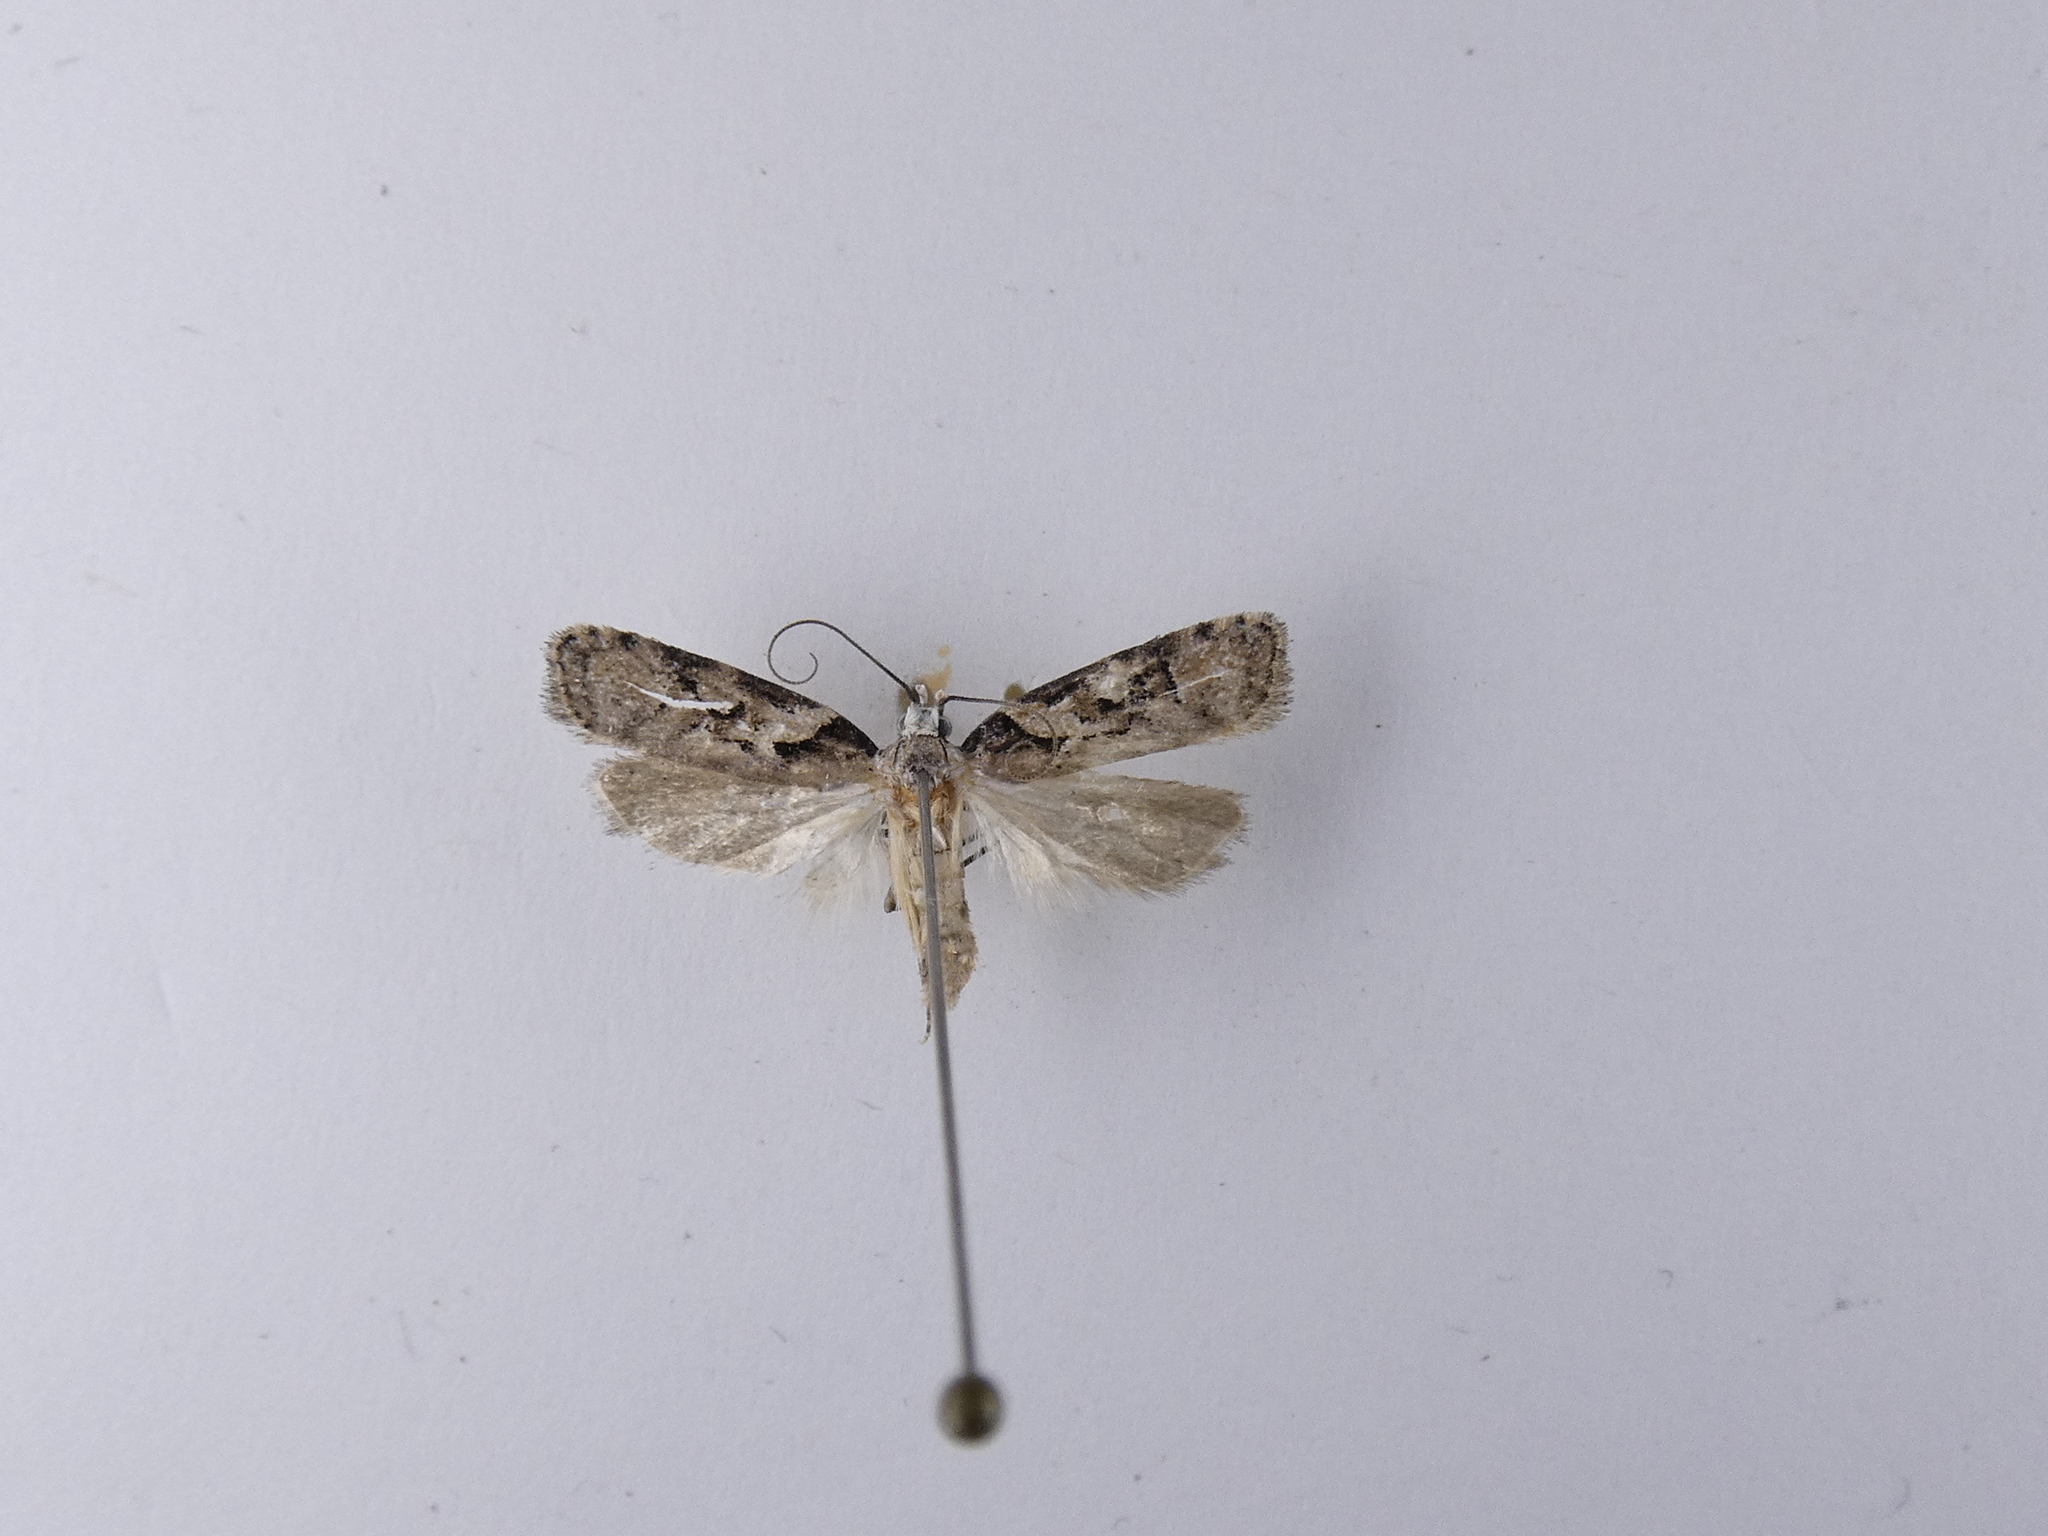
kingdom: Animalia
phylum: Arthropoda
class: Insecta
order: Lepidoptera
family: Oecophoridae
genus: Izatha
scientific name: Izatha epiphanes
